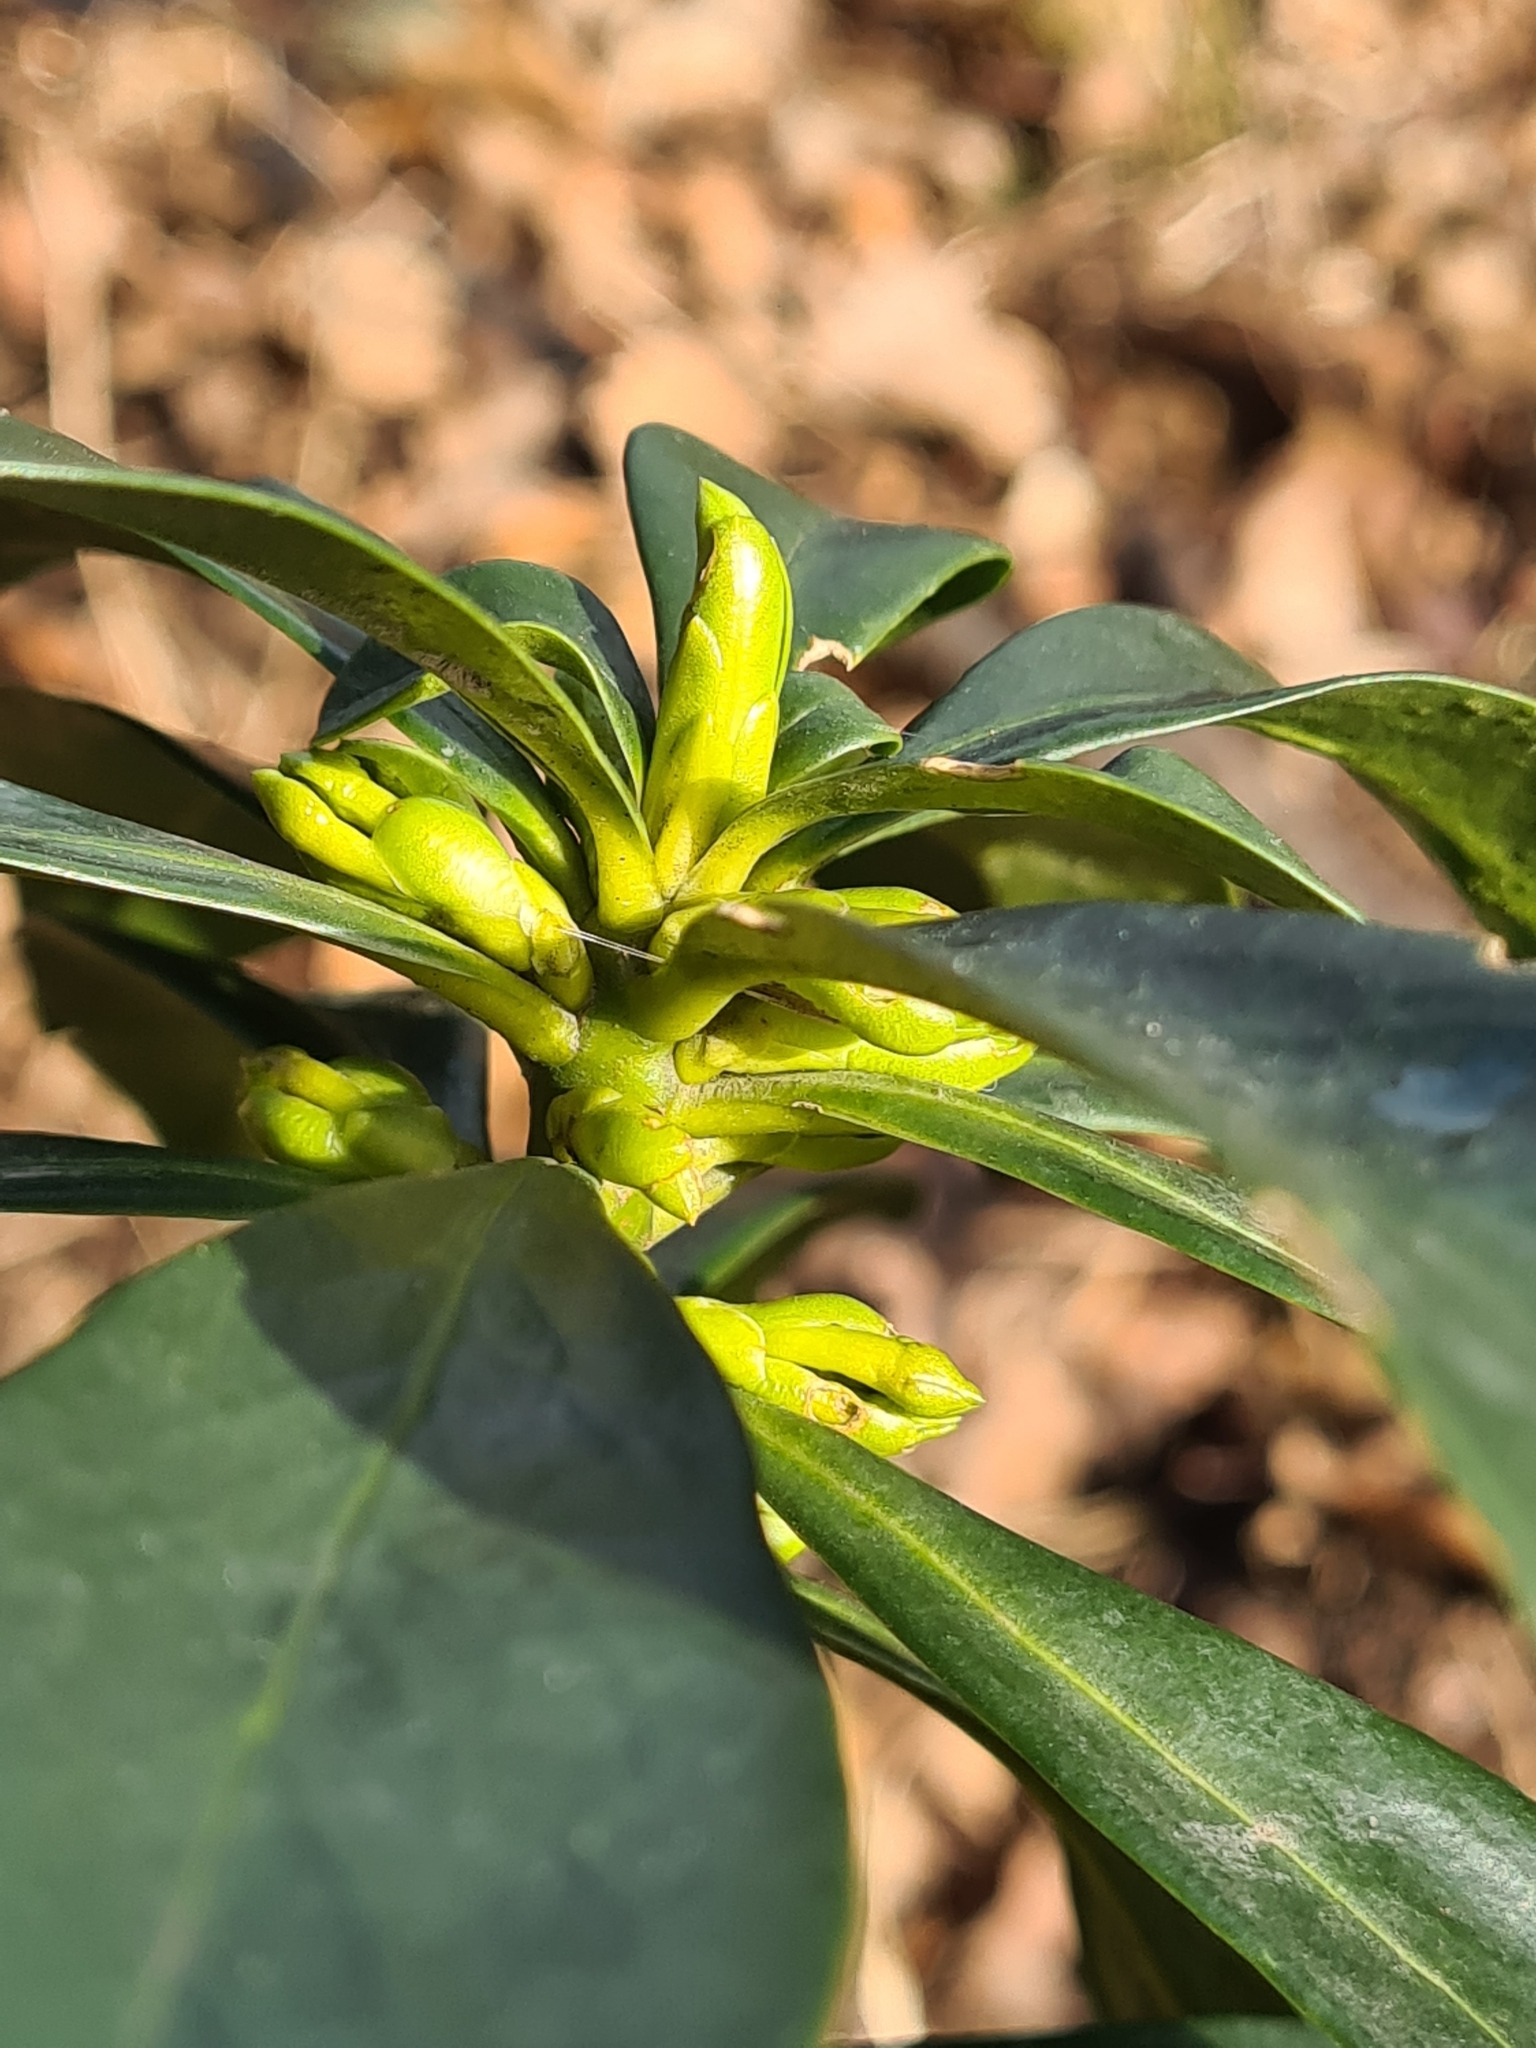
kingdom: Plantae
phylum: Tracheophyta
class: Magnoliopsida
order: Malvales
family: Thymelaeaceae
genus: Daphne
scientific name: Daphne laureola
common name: Spurge-laurel
